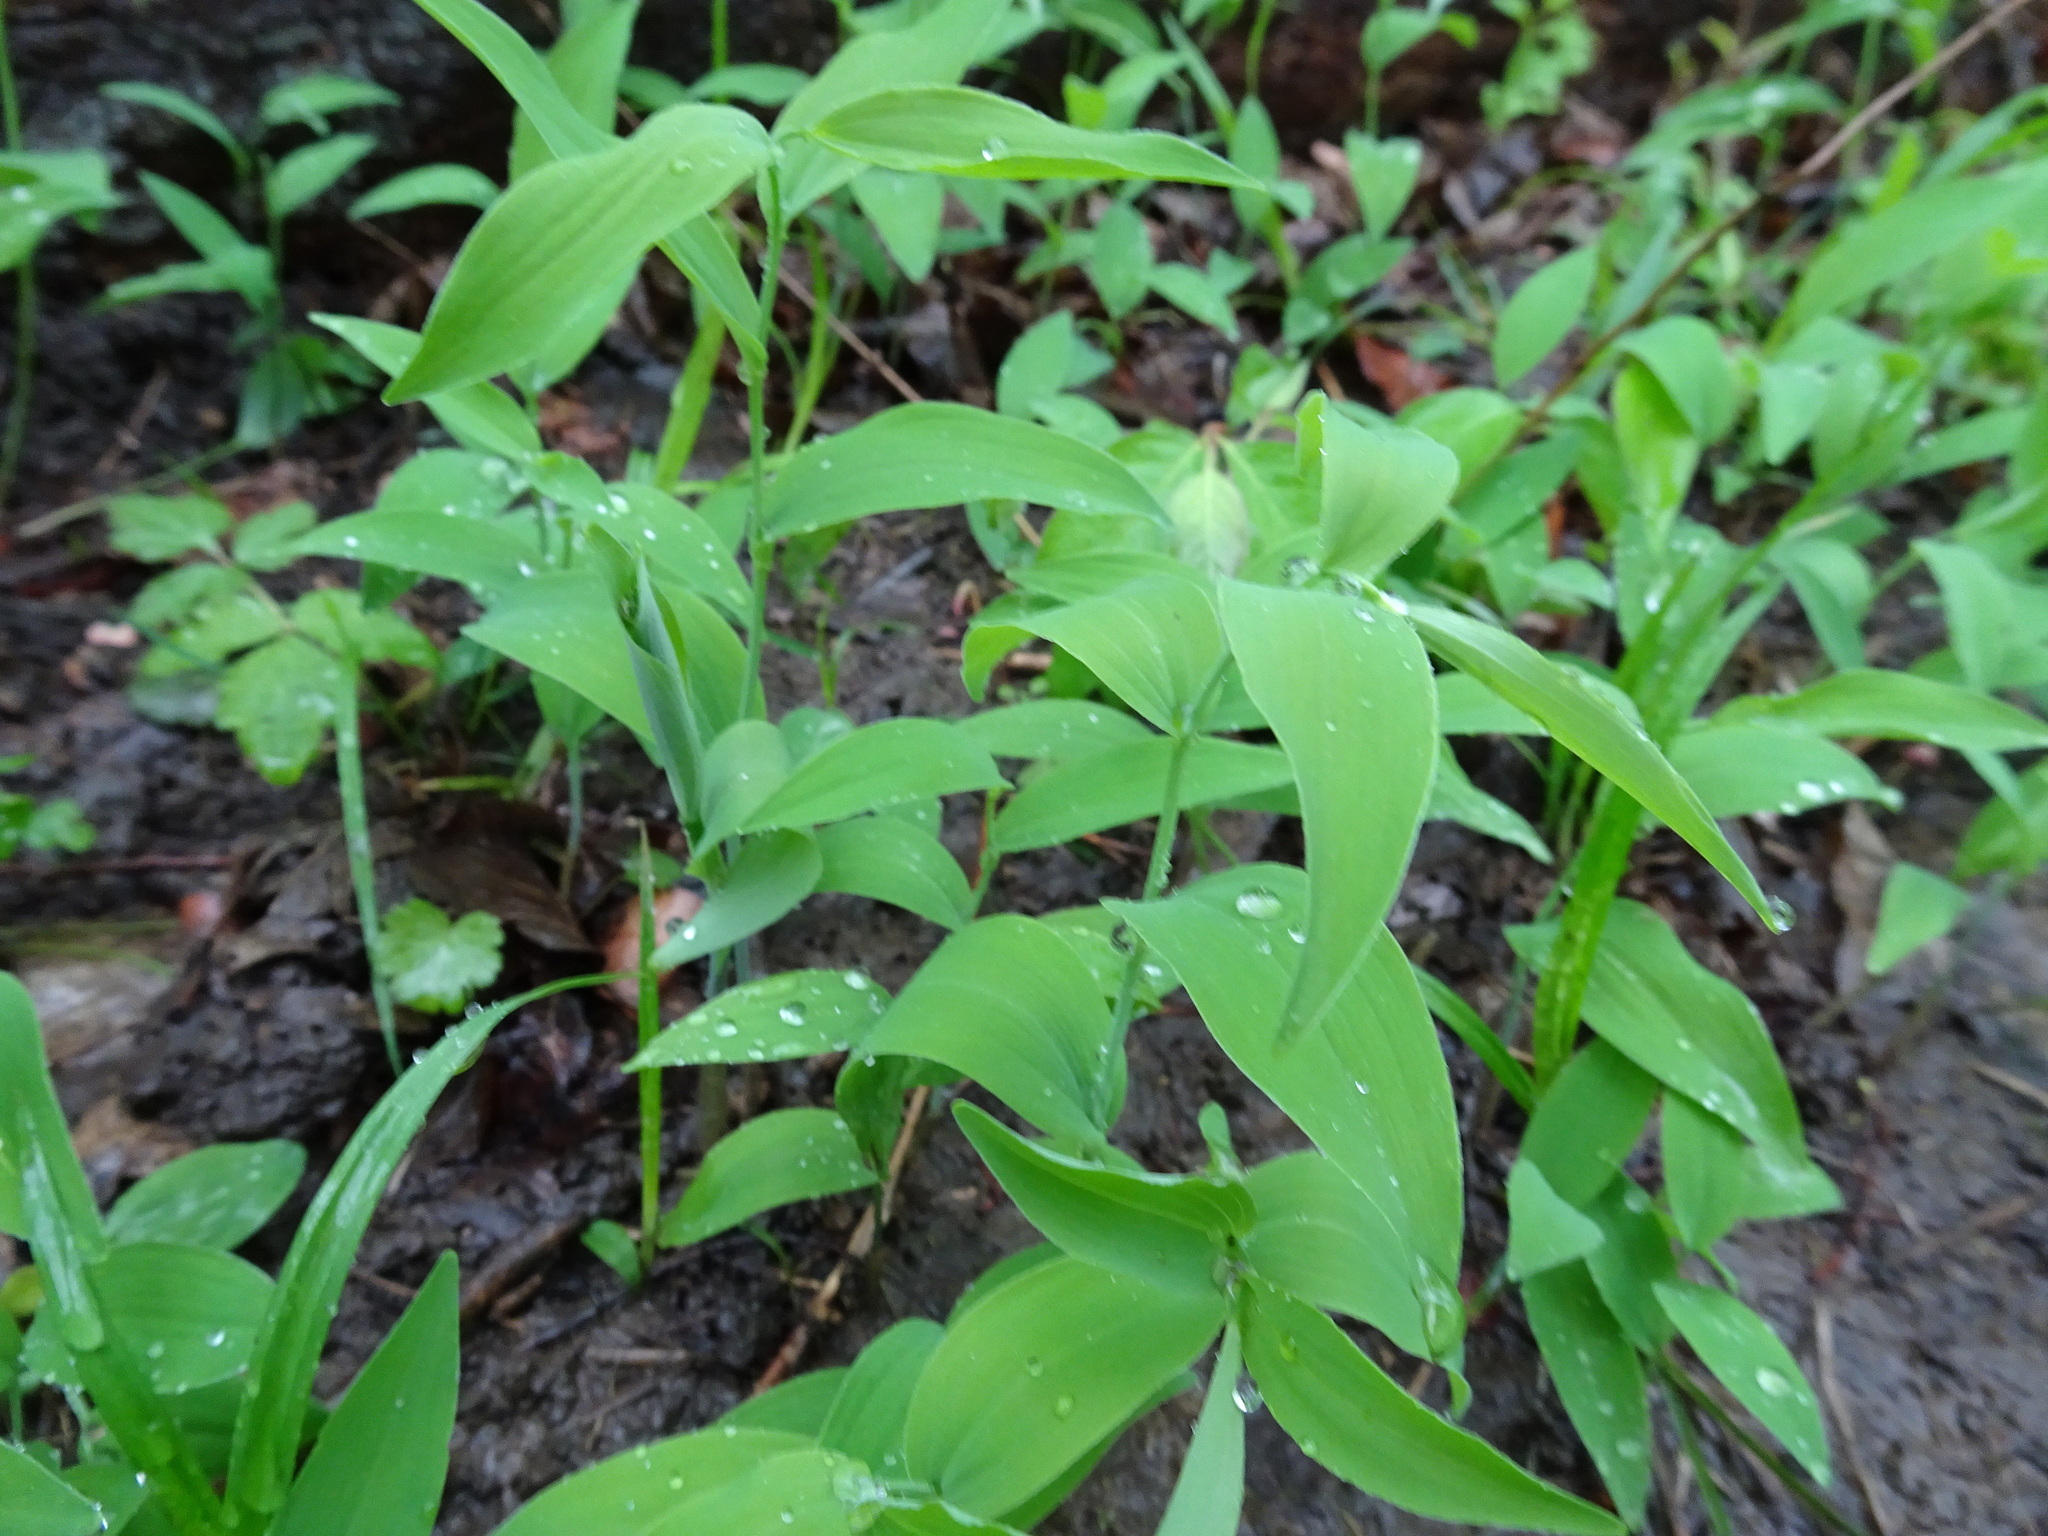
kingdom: Plantae
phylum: Tracheophyta
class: Liliopsida
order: Asparagales
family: Asparagaceae
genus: Polygonatum
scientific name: Polygonatum biflorum
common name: American solomon's-seal
